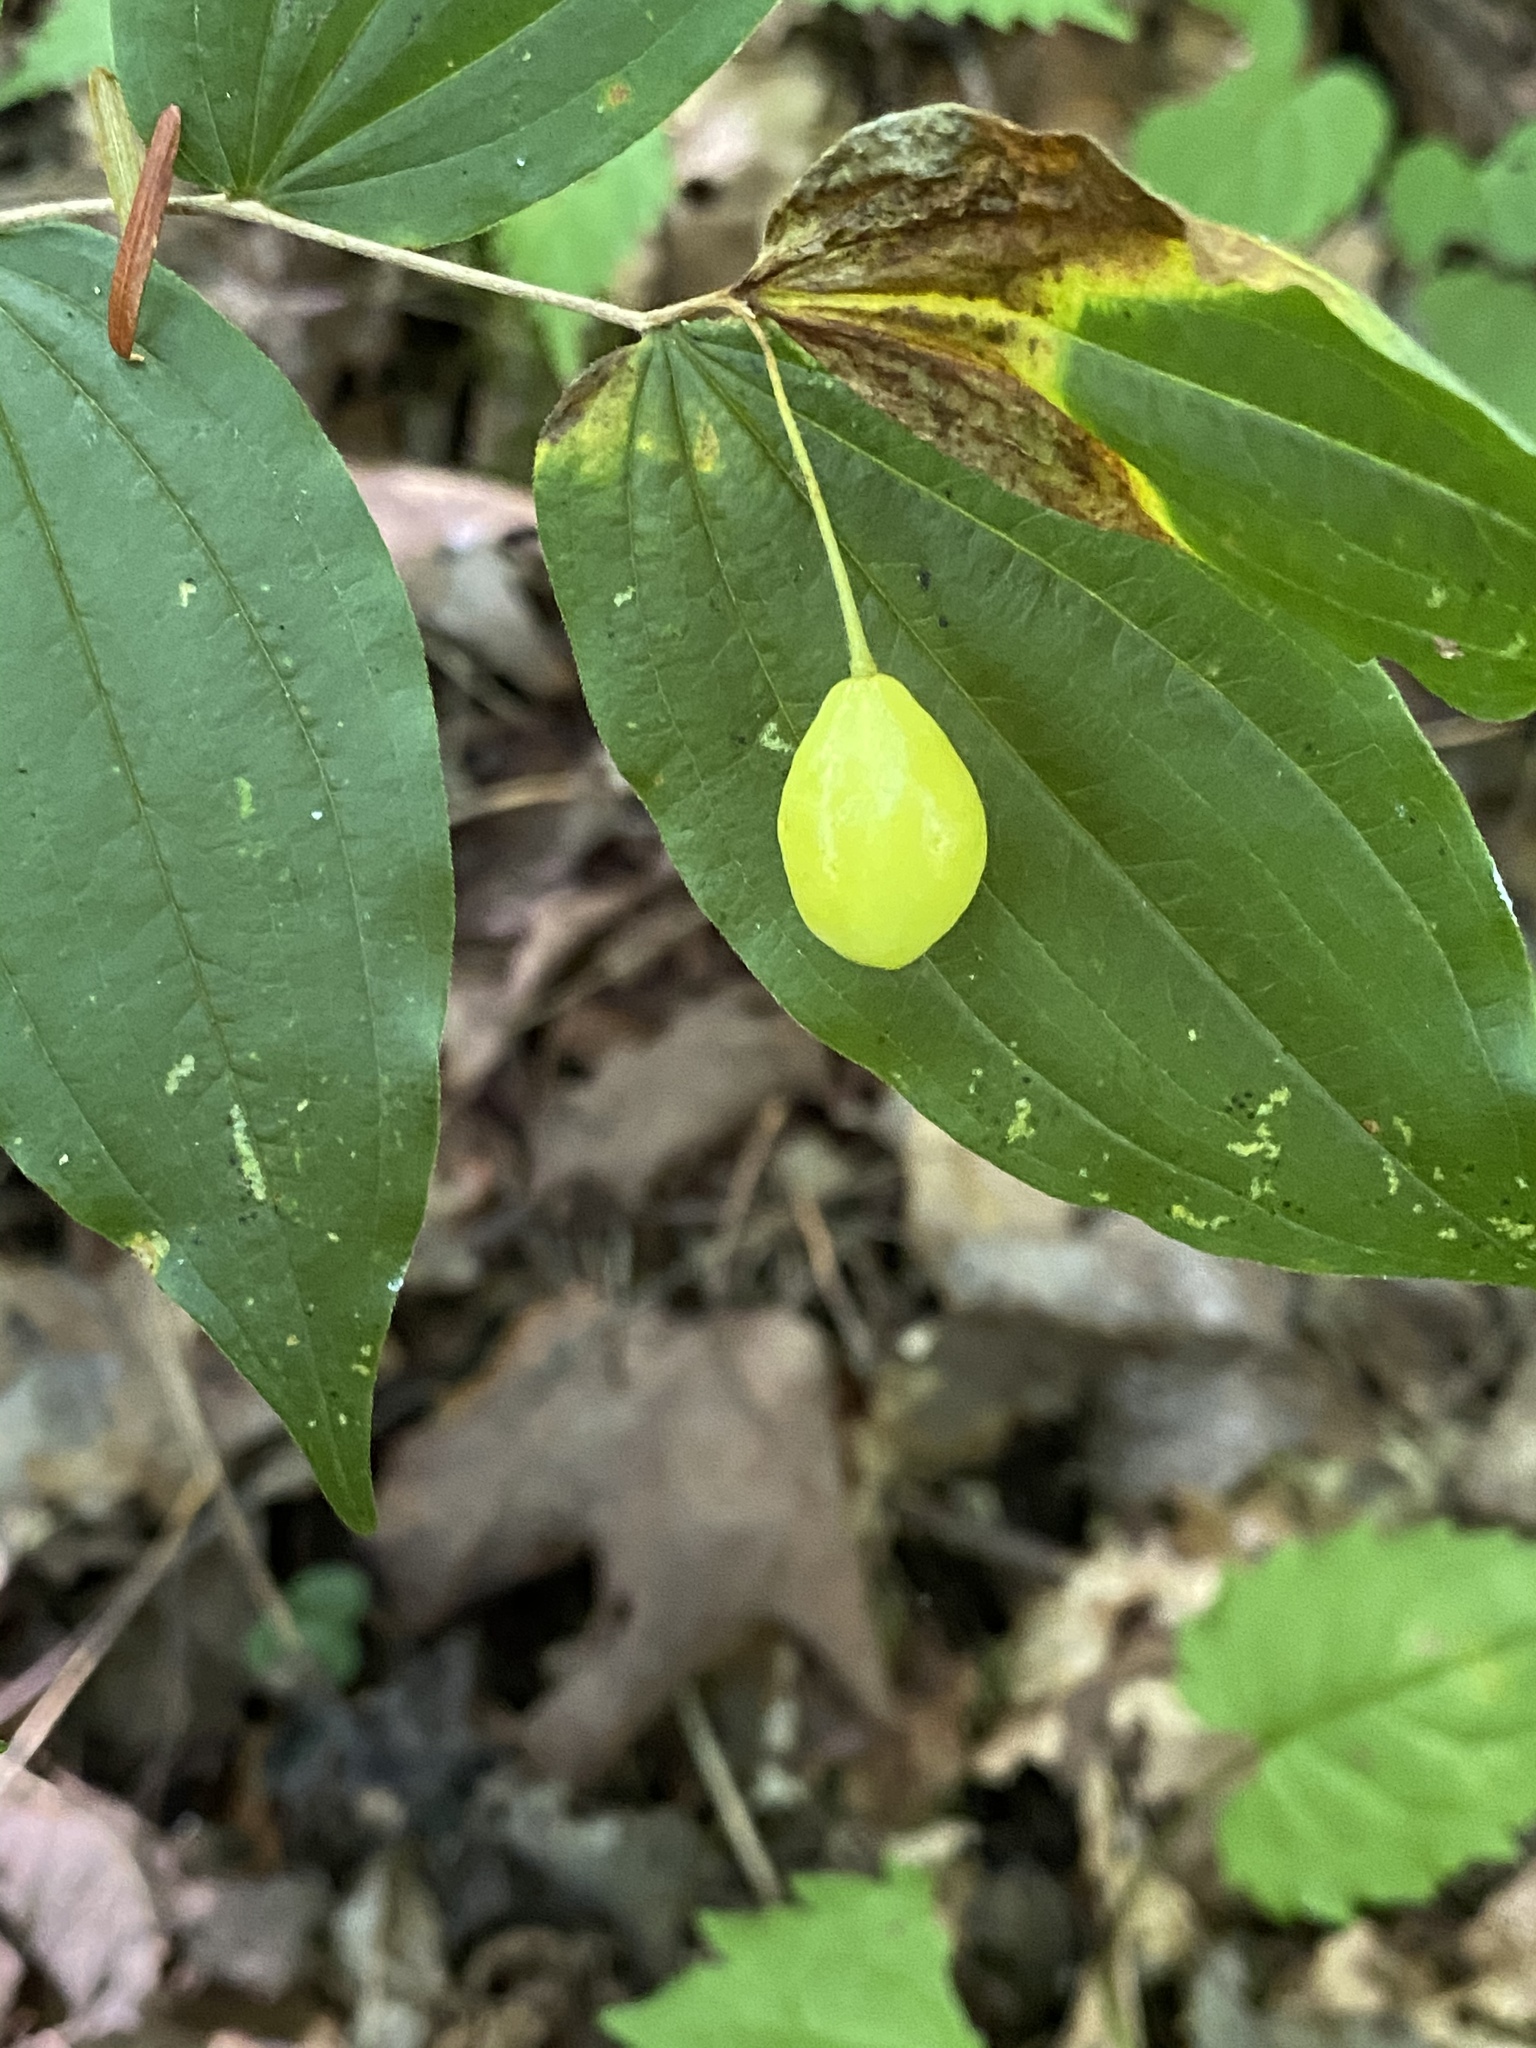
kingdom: Plantae
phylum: Tracheophyta
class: Liliopsida
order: Liliales
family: Liliaceae
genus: Prosartes
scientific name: Prosartes lanuginosa
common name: Hairy mandarin
